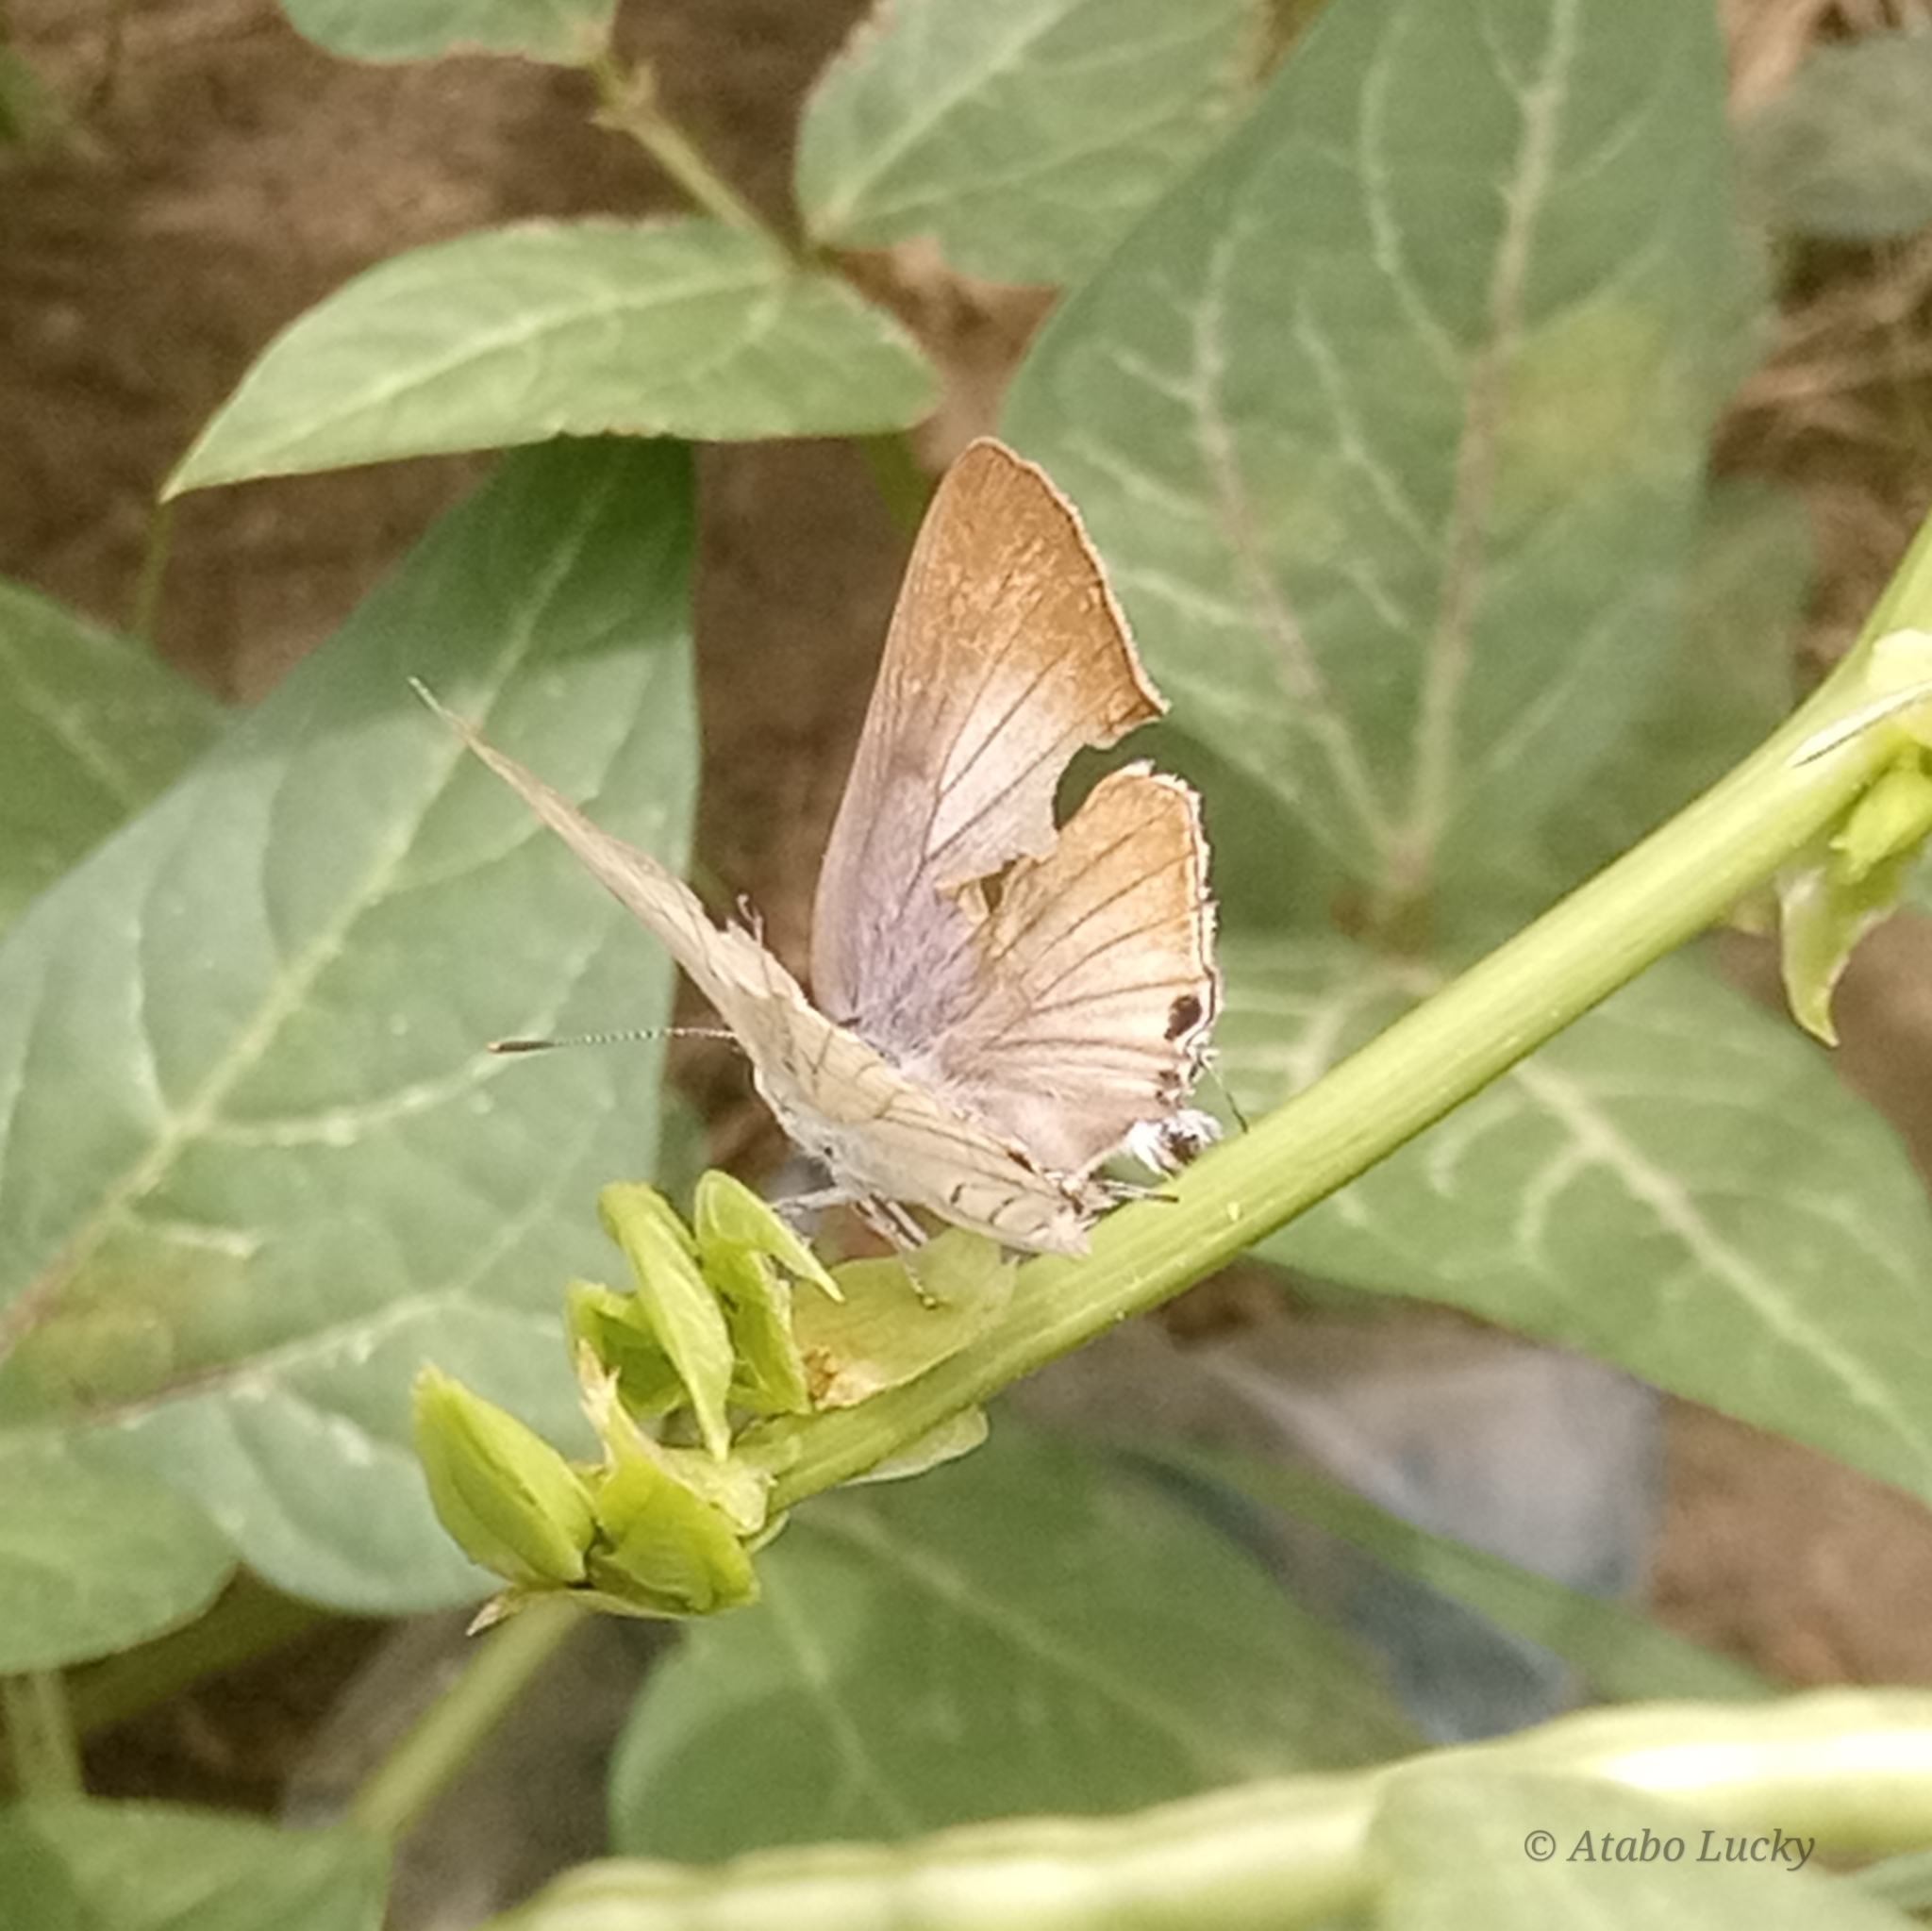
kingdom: Animalia
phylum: Arthropoda
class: Insecta
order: Lepidoptera
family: Lycaenidae
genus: Deudorix
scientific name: Deudorix antalus
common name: Brown playboy
